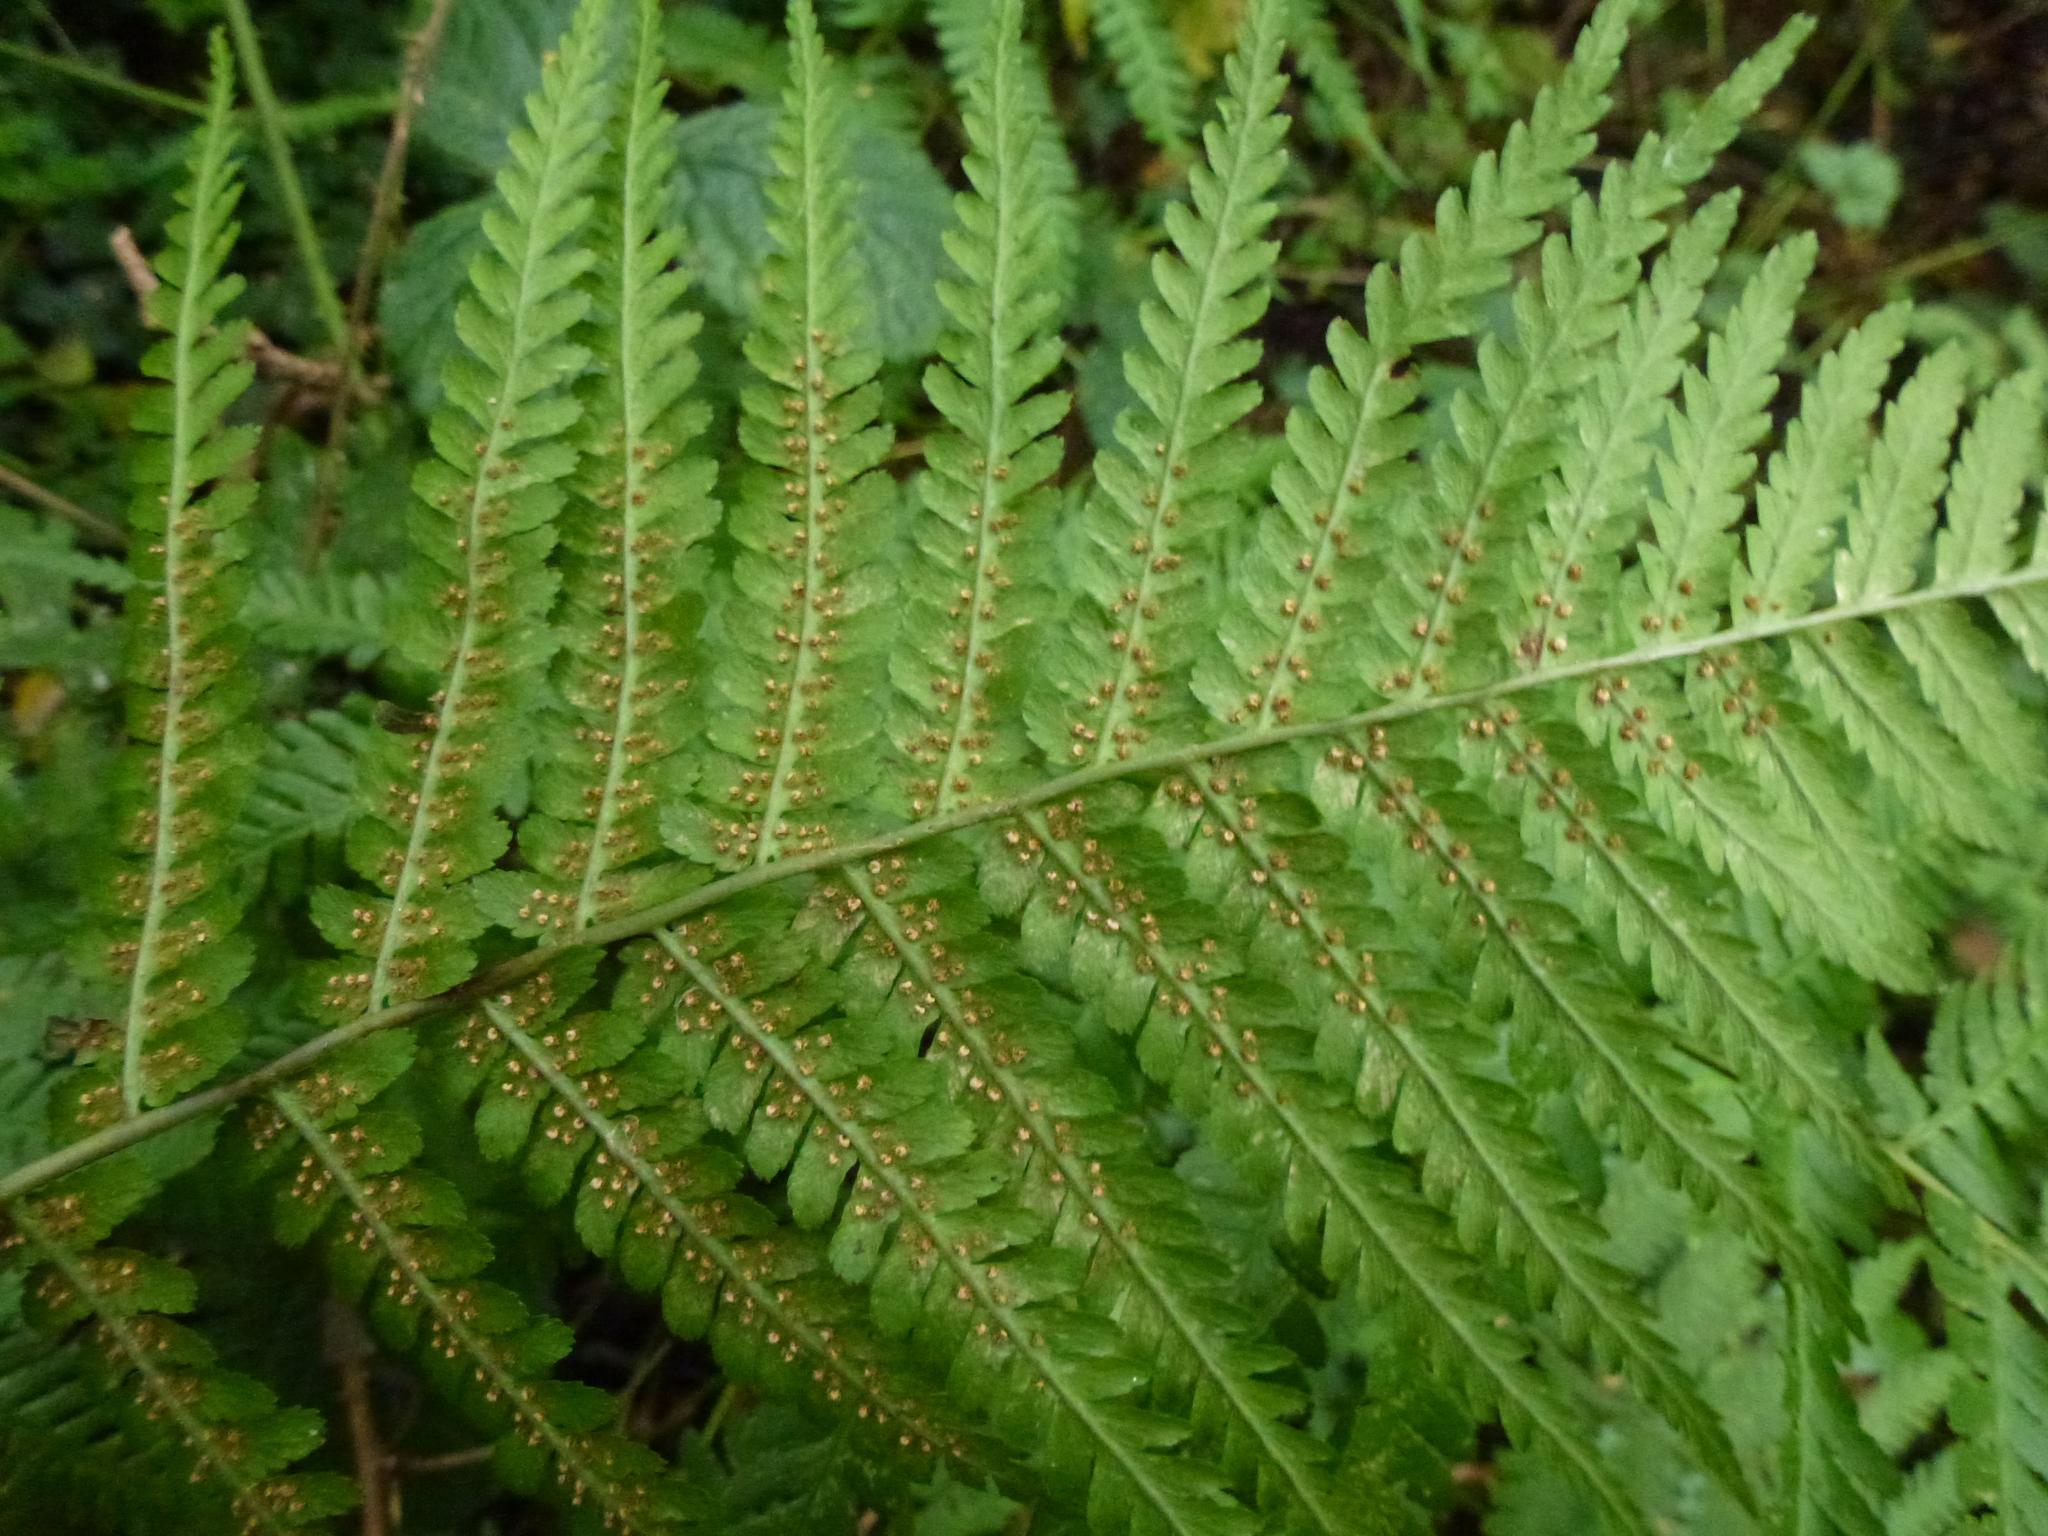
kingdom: Plantae
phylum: Tracheophyta
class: Polypodiopsida
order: Polypodiales
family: Dryopteridaceae
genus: Dryopteris
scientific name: Dryopteris filix-mas
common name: Male fern
